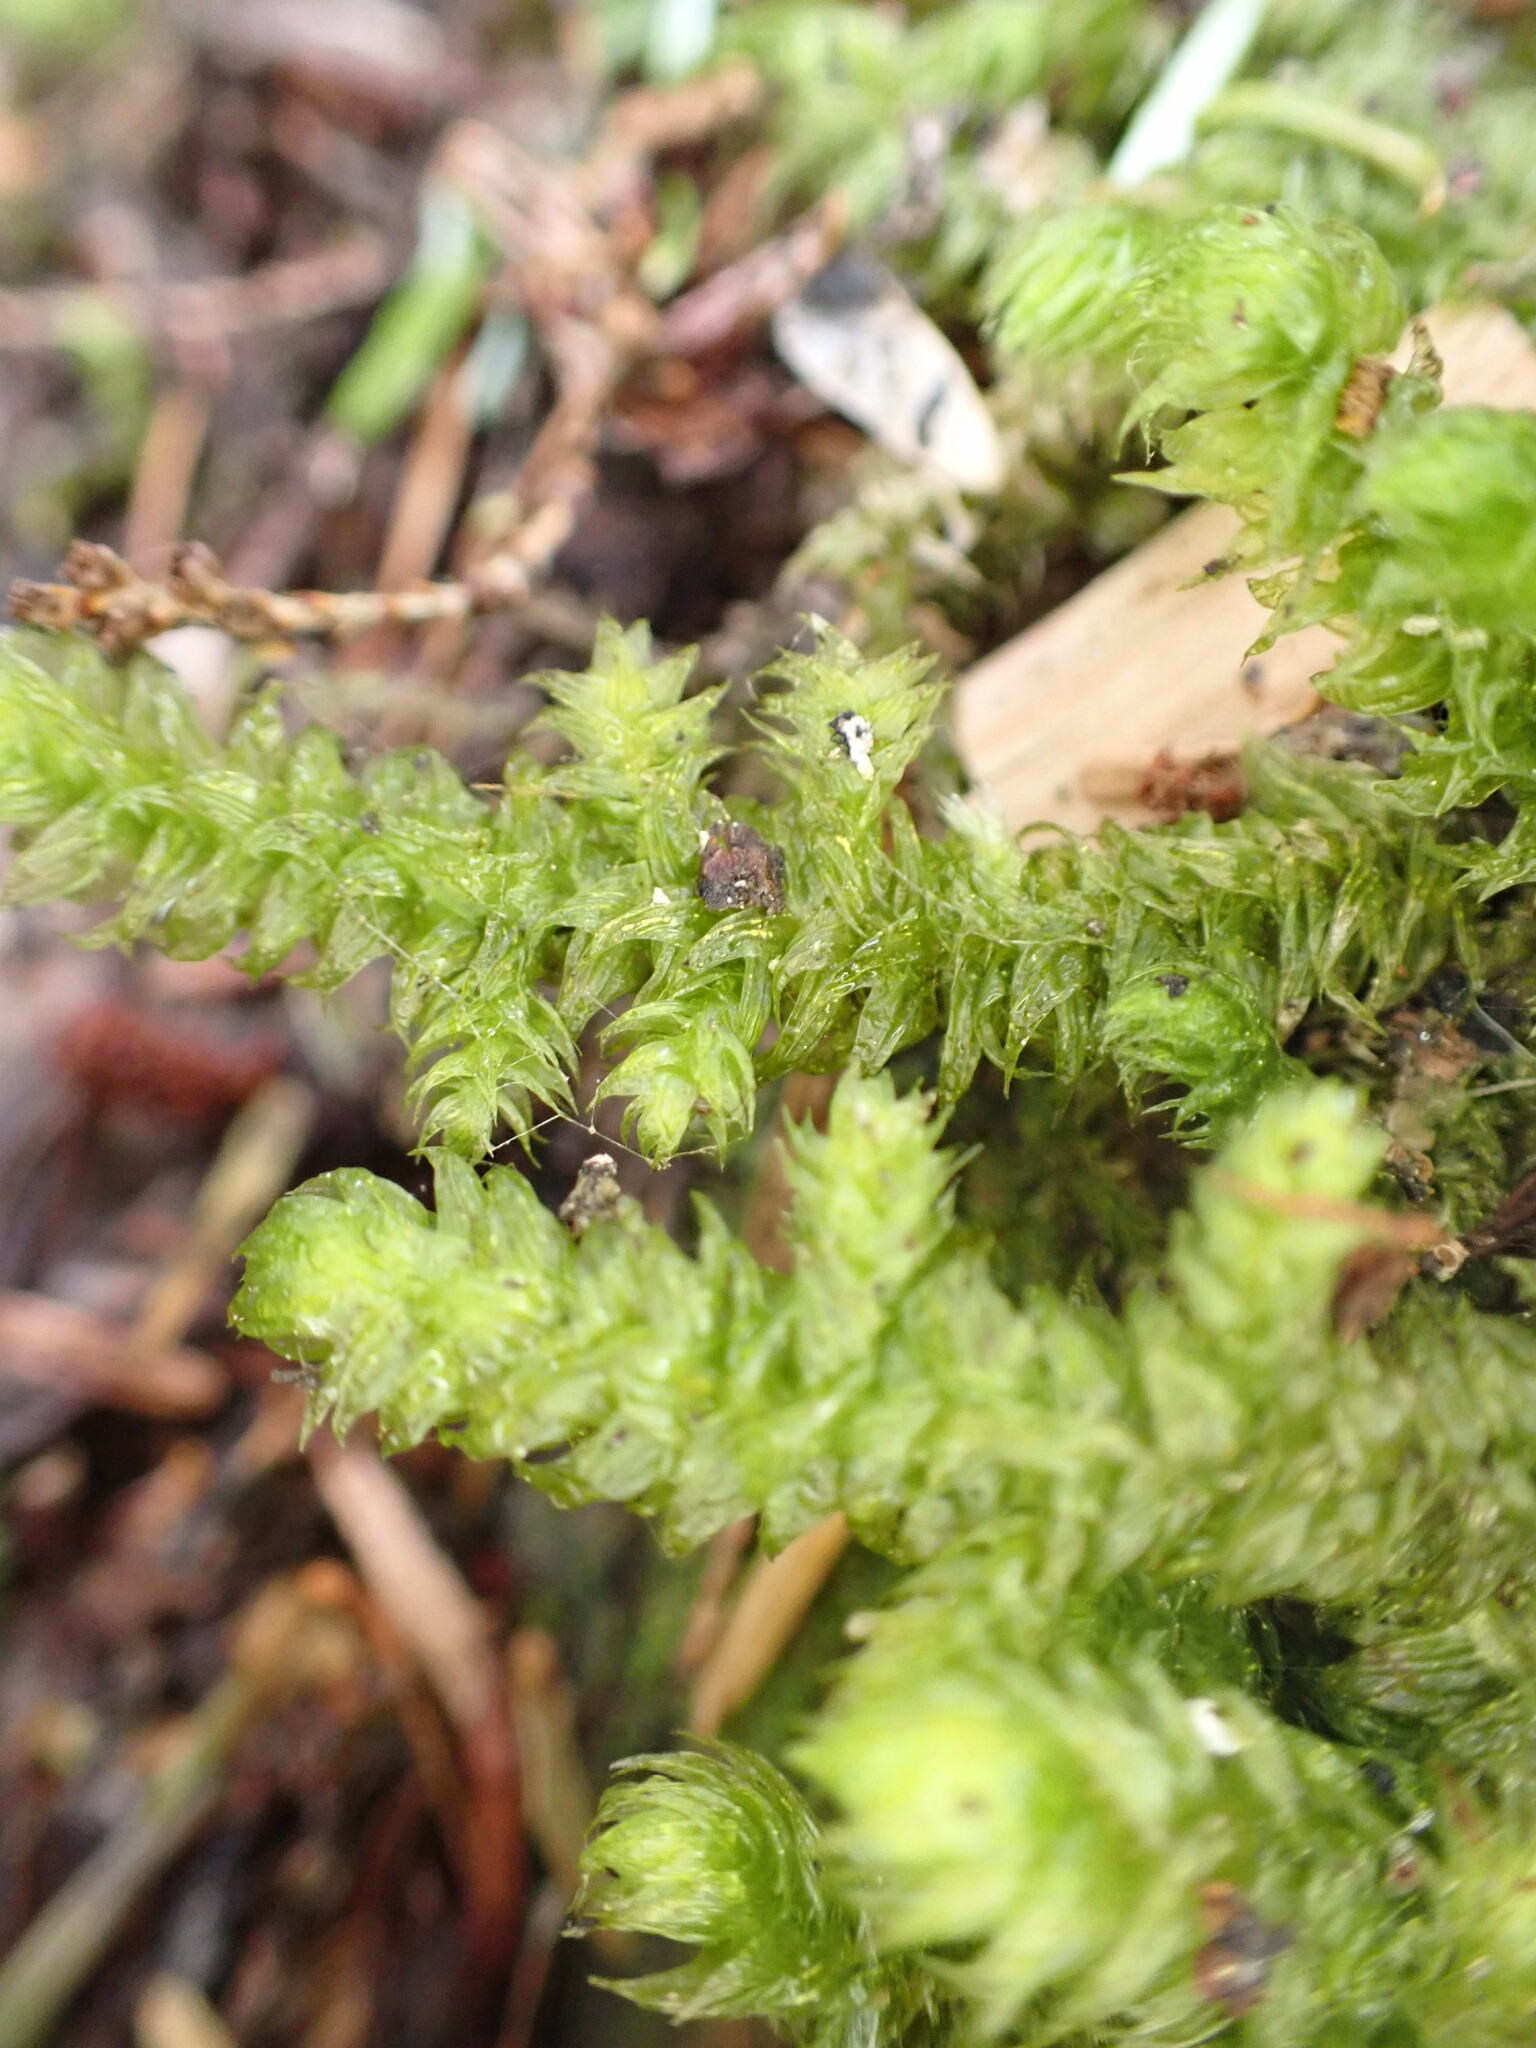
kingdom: Plantae
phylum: Bryophyta
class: Bryopsida
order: Hypnales
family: Hylocomiaceae
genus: Rhytidiopsis
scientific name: Rhytidiopsis robusta
